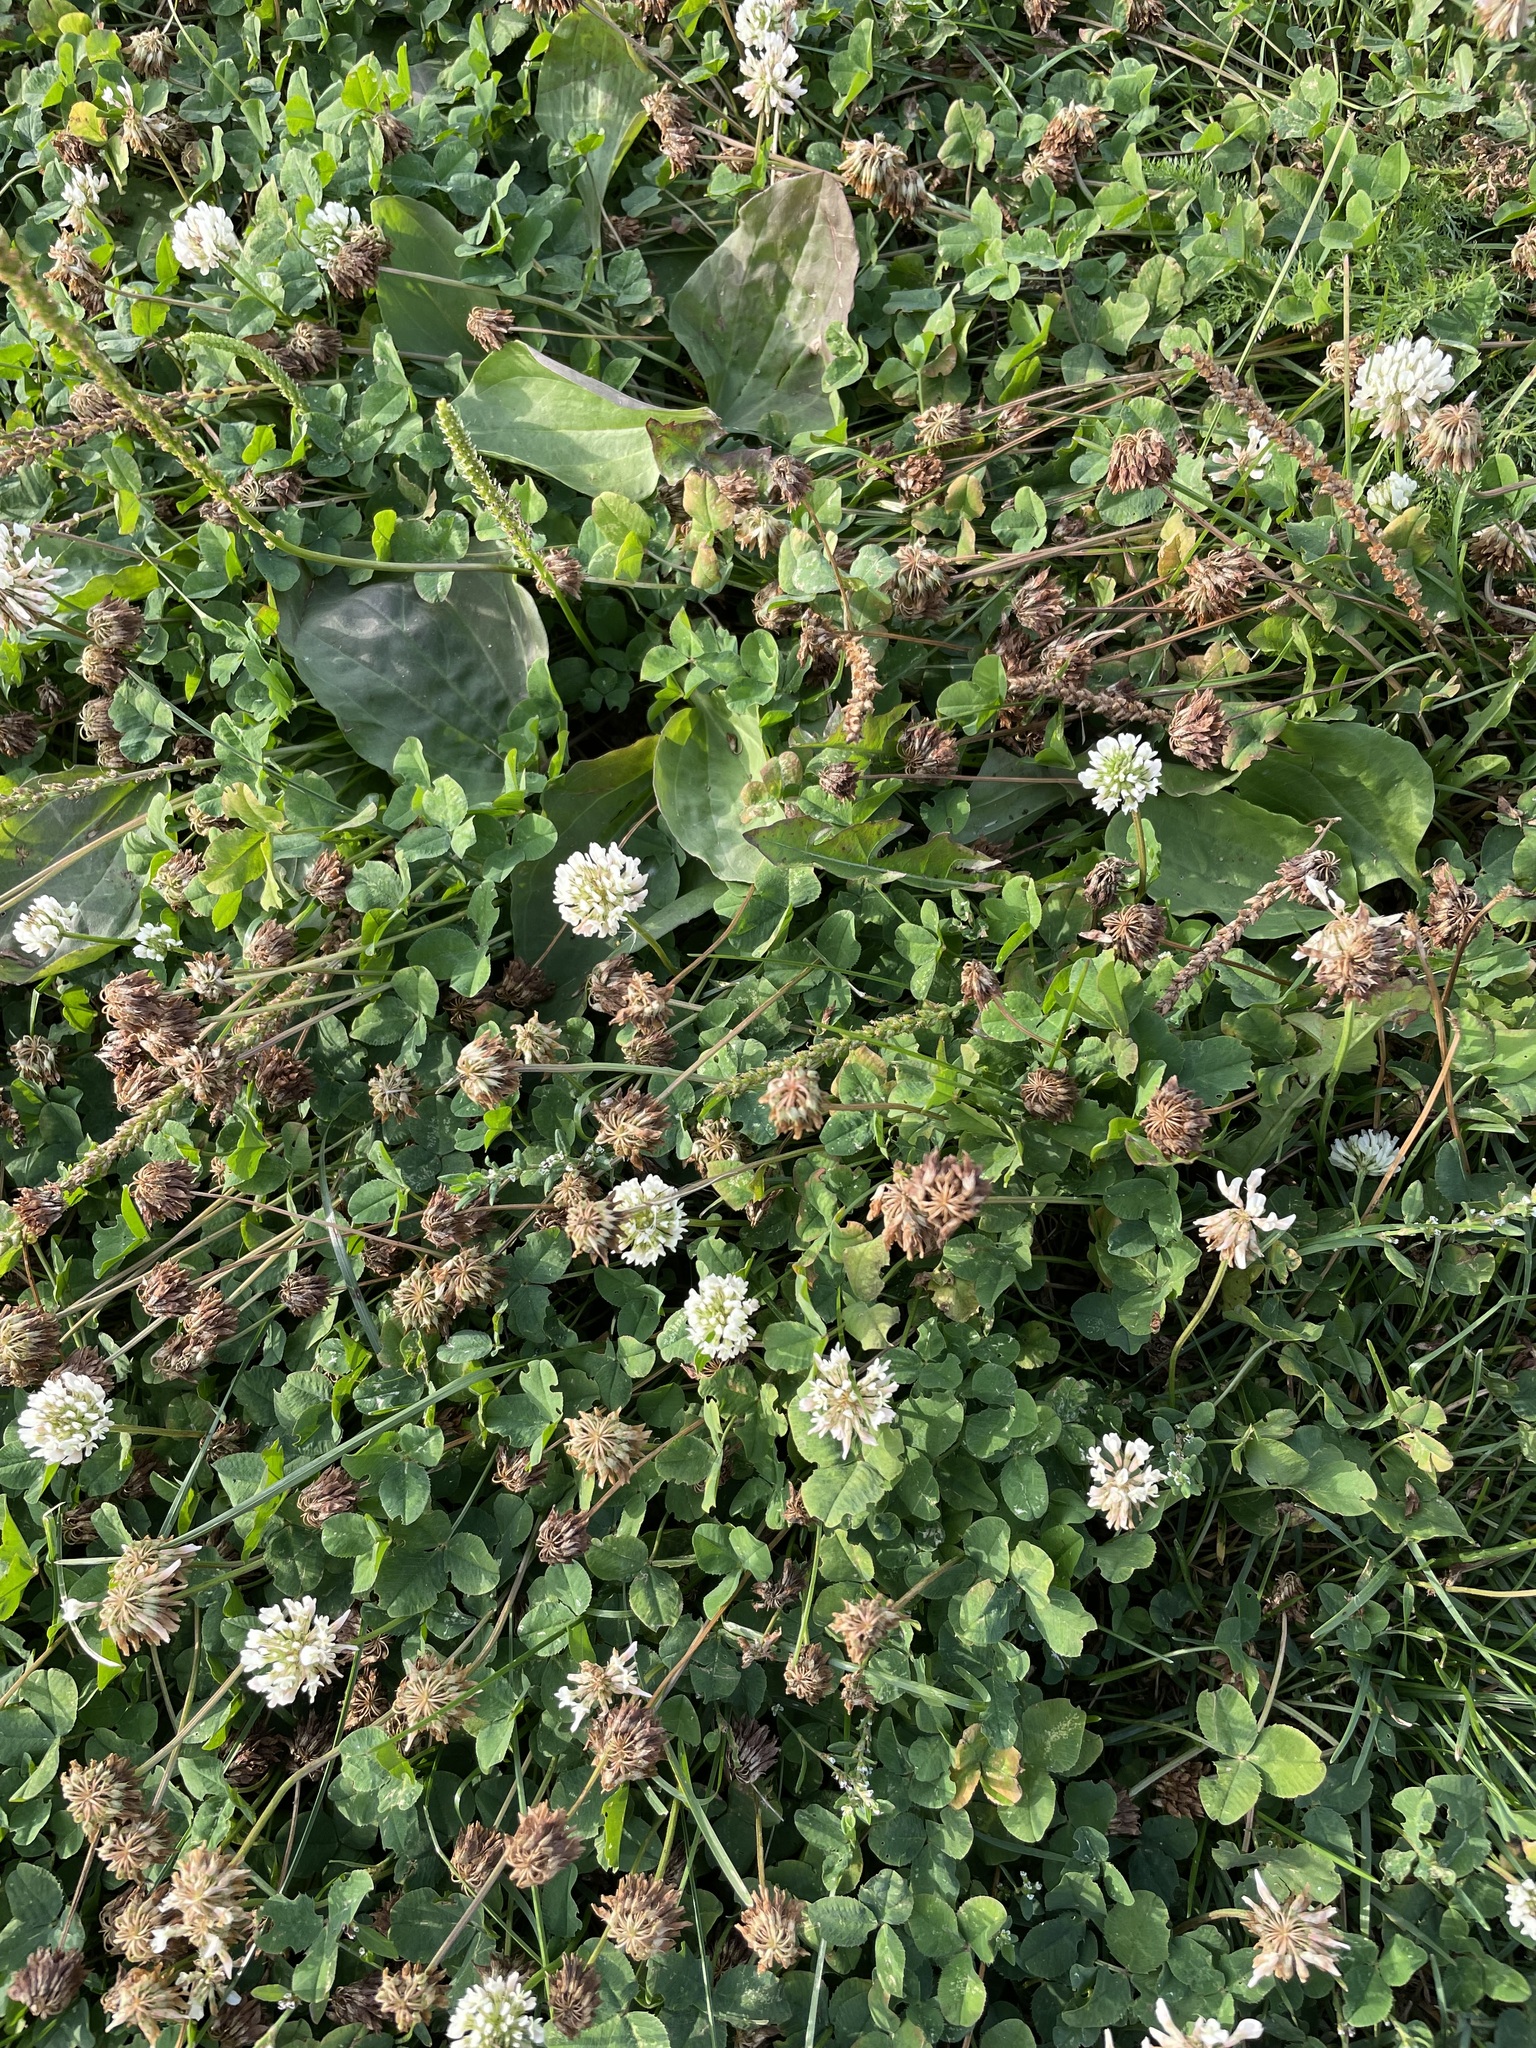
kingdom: Plantae
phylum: Tracheophyta
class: Magnoliopsida
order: Fabales
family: Fabaceae
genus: Trifolium
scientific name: Trifolium repens
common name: White clover
